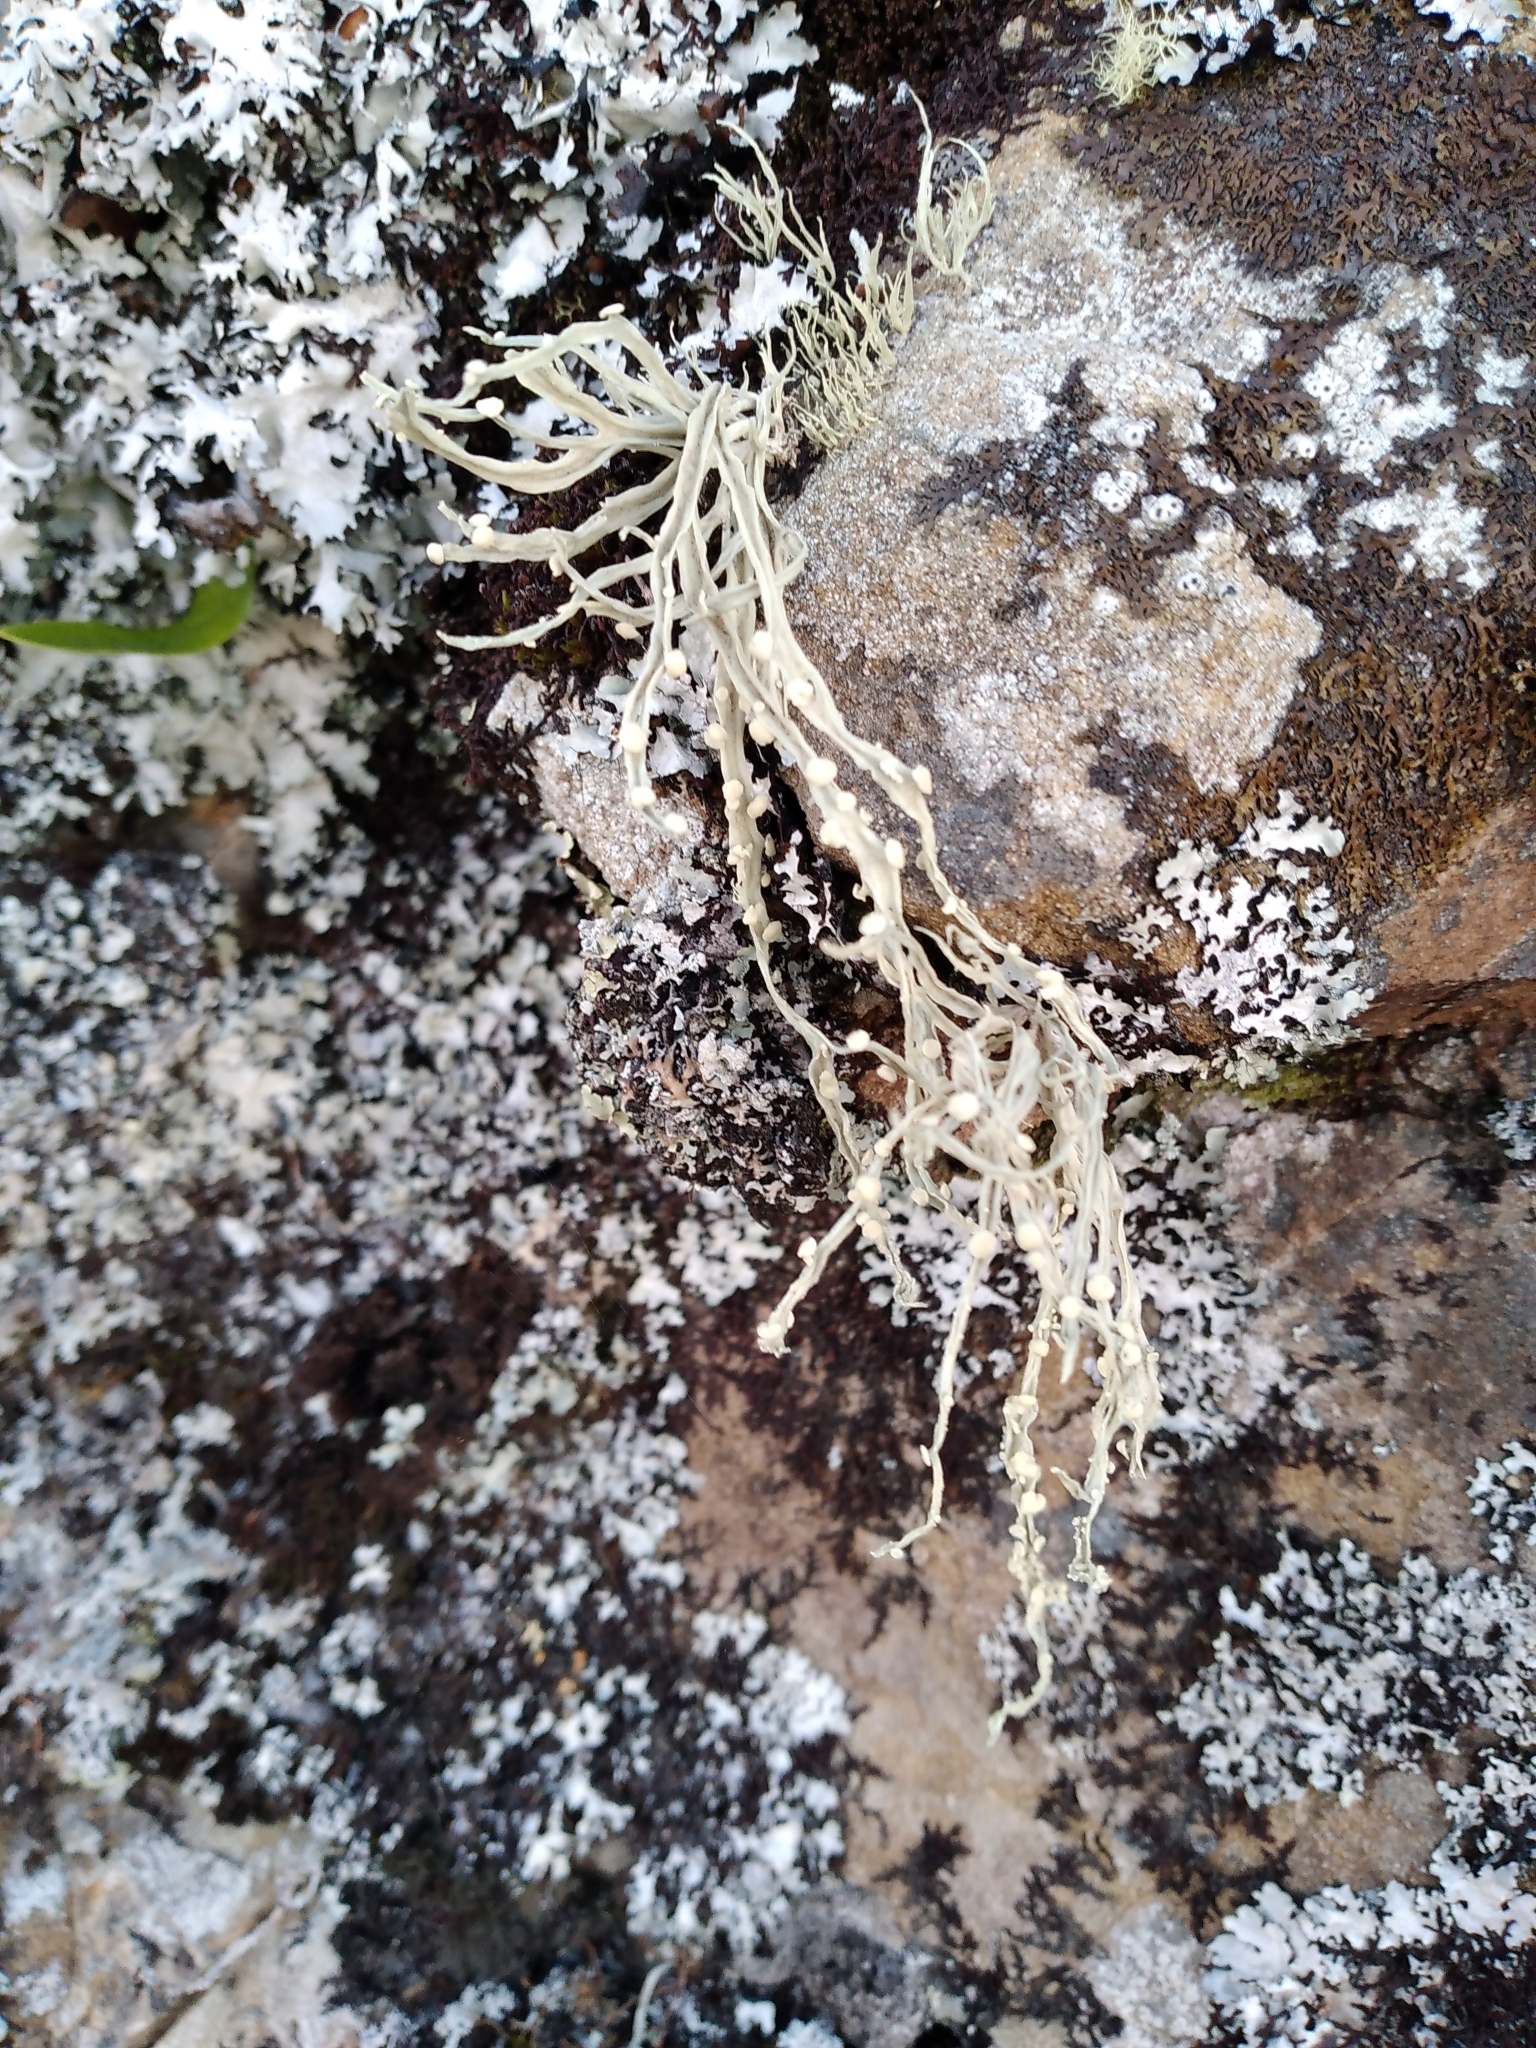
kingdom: Fungi
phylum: Ascomycota
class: Lecanoromycetes
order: Lecanorales
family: Ramalinaceae
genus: Ramalina
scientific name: Ramalina celastri
